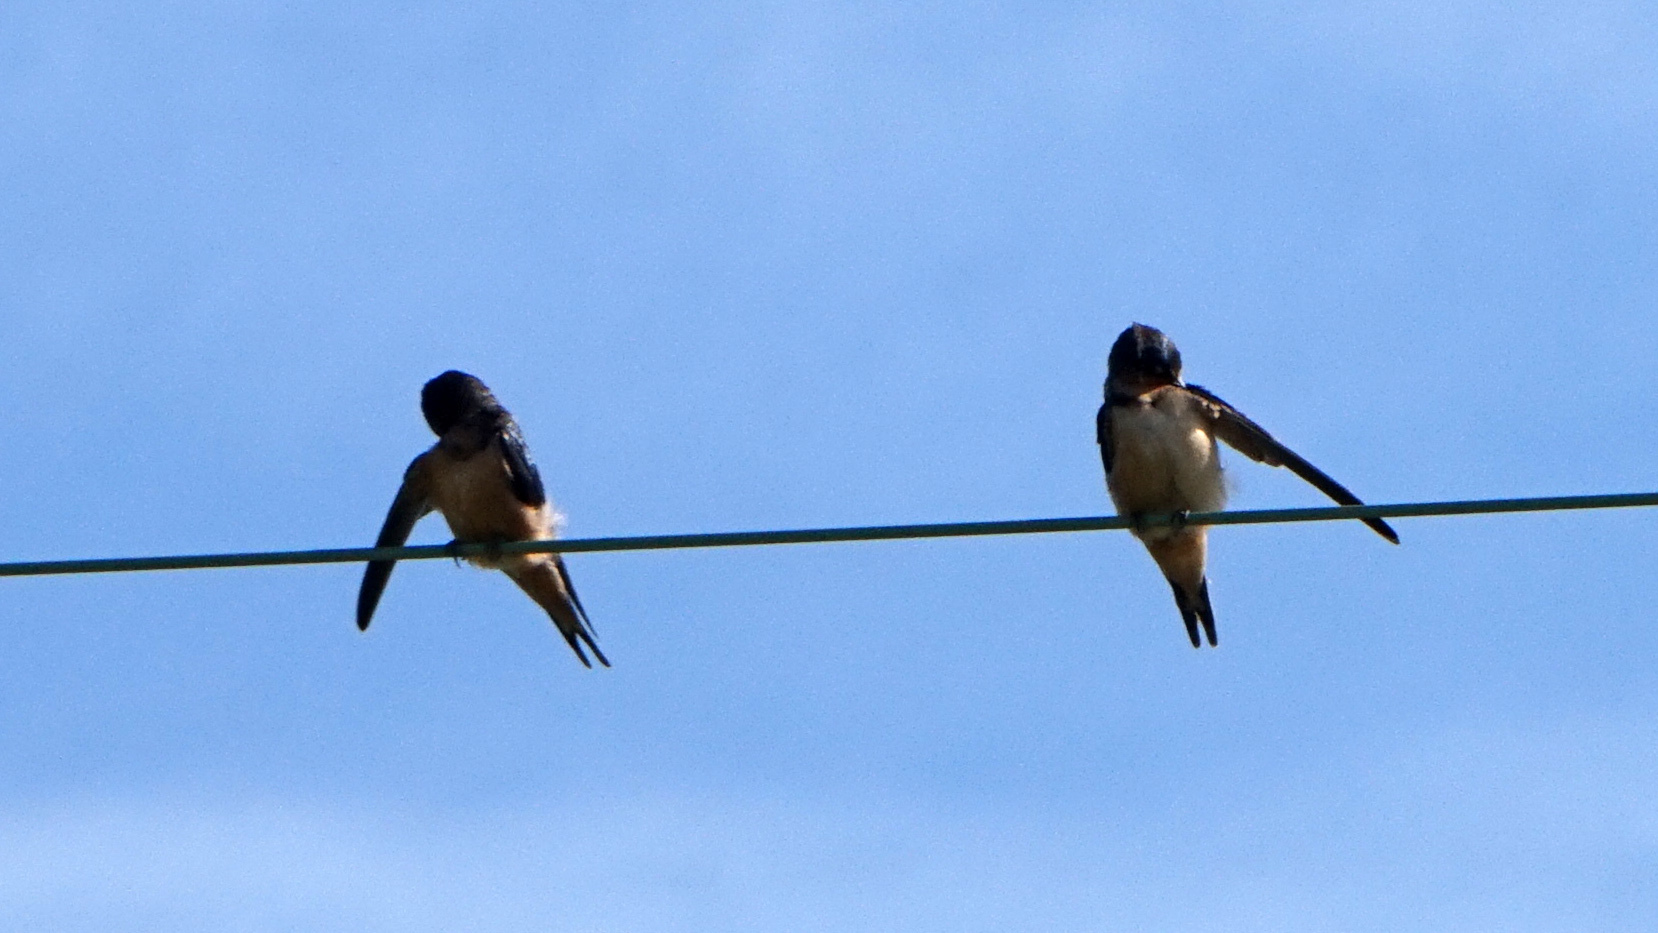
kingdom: Animalia
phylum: Chordata
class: Aves
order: Passeriformes
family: Hirundinidae
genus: Hirundo
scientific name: Hirundo rustica
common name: Barn swallow
